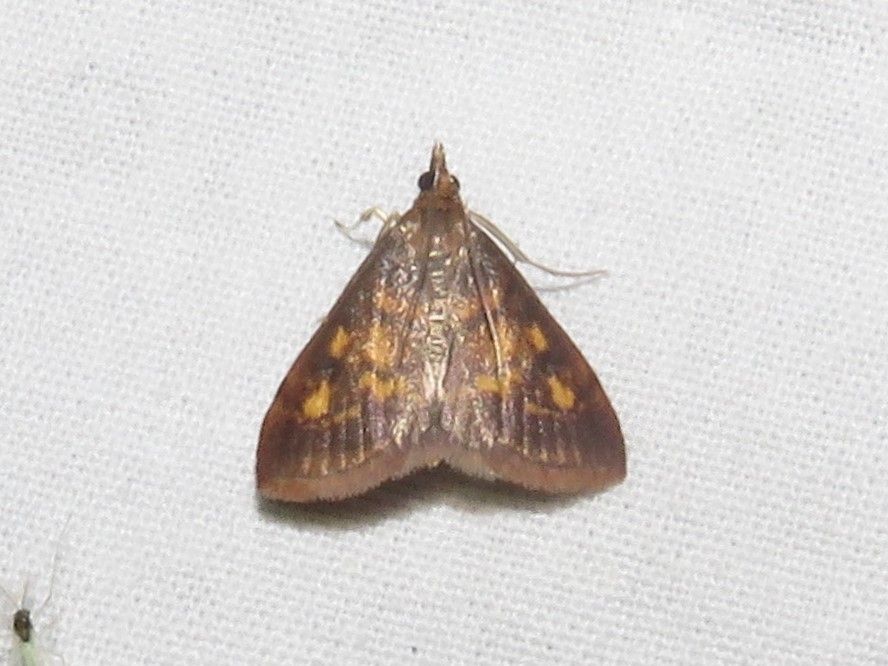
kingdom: Animalia
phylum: Arthropoda
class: Insecta
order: Lepidoptera
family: Crambidae
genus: Pyrausta
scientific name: Pyrausta acrionalis
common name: Mint-loving pyrausta moth
